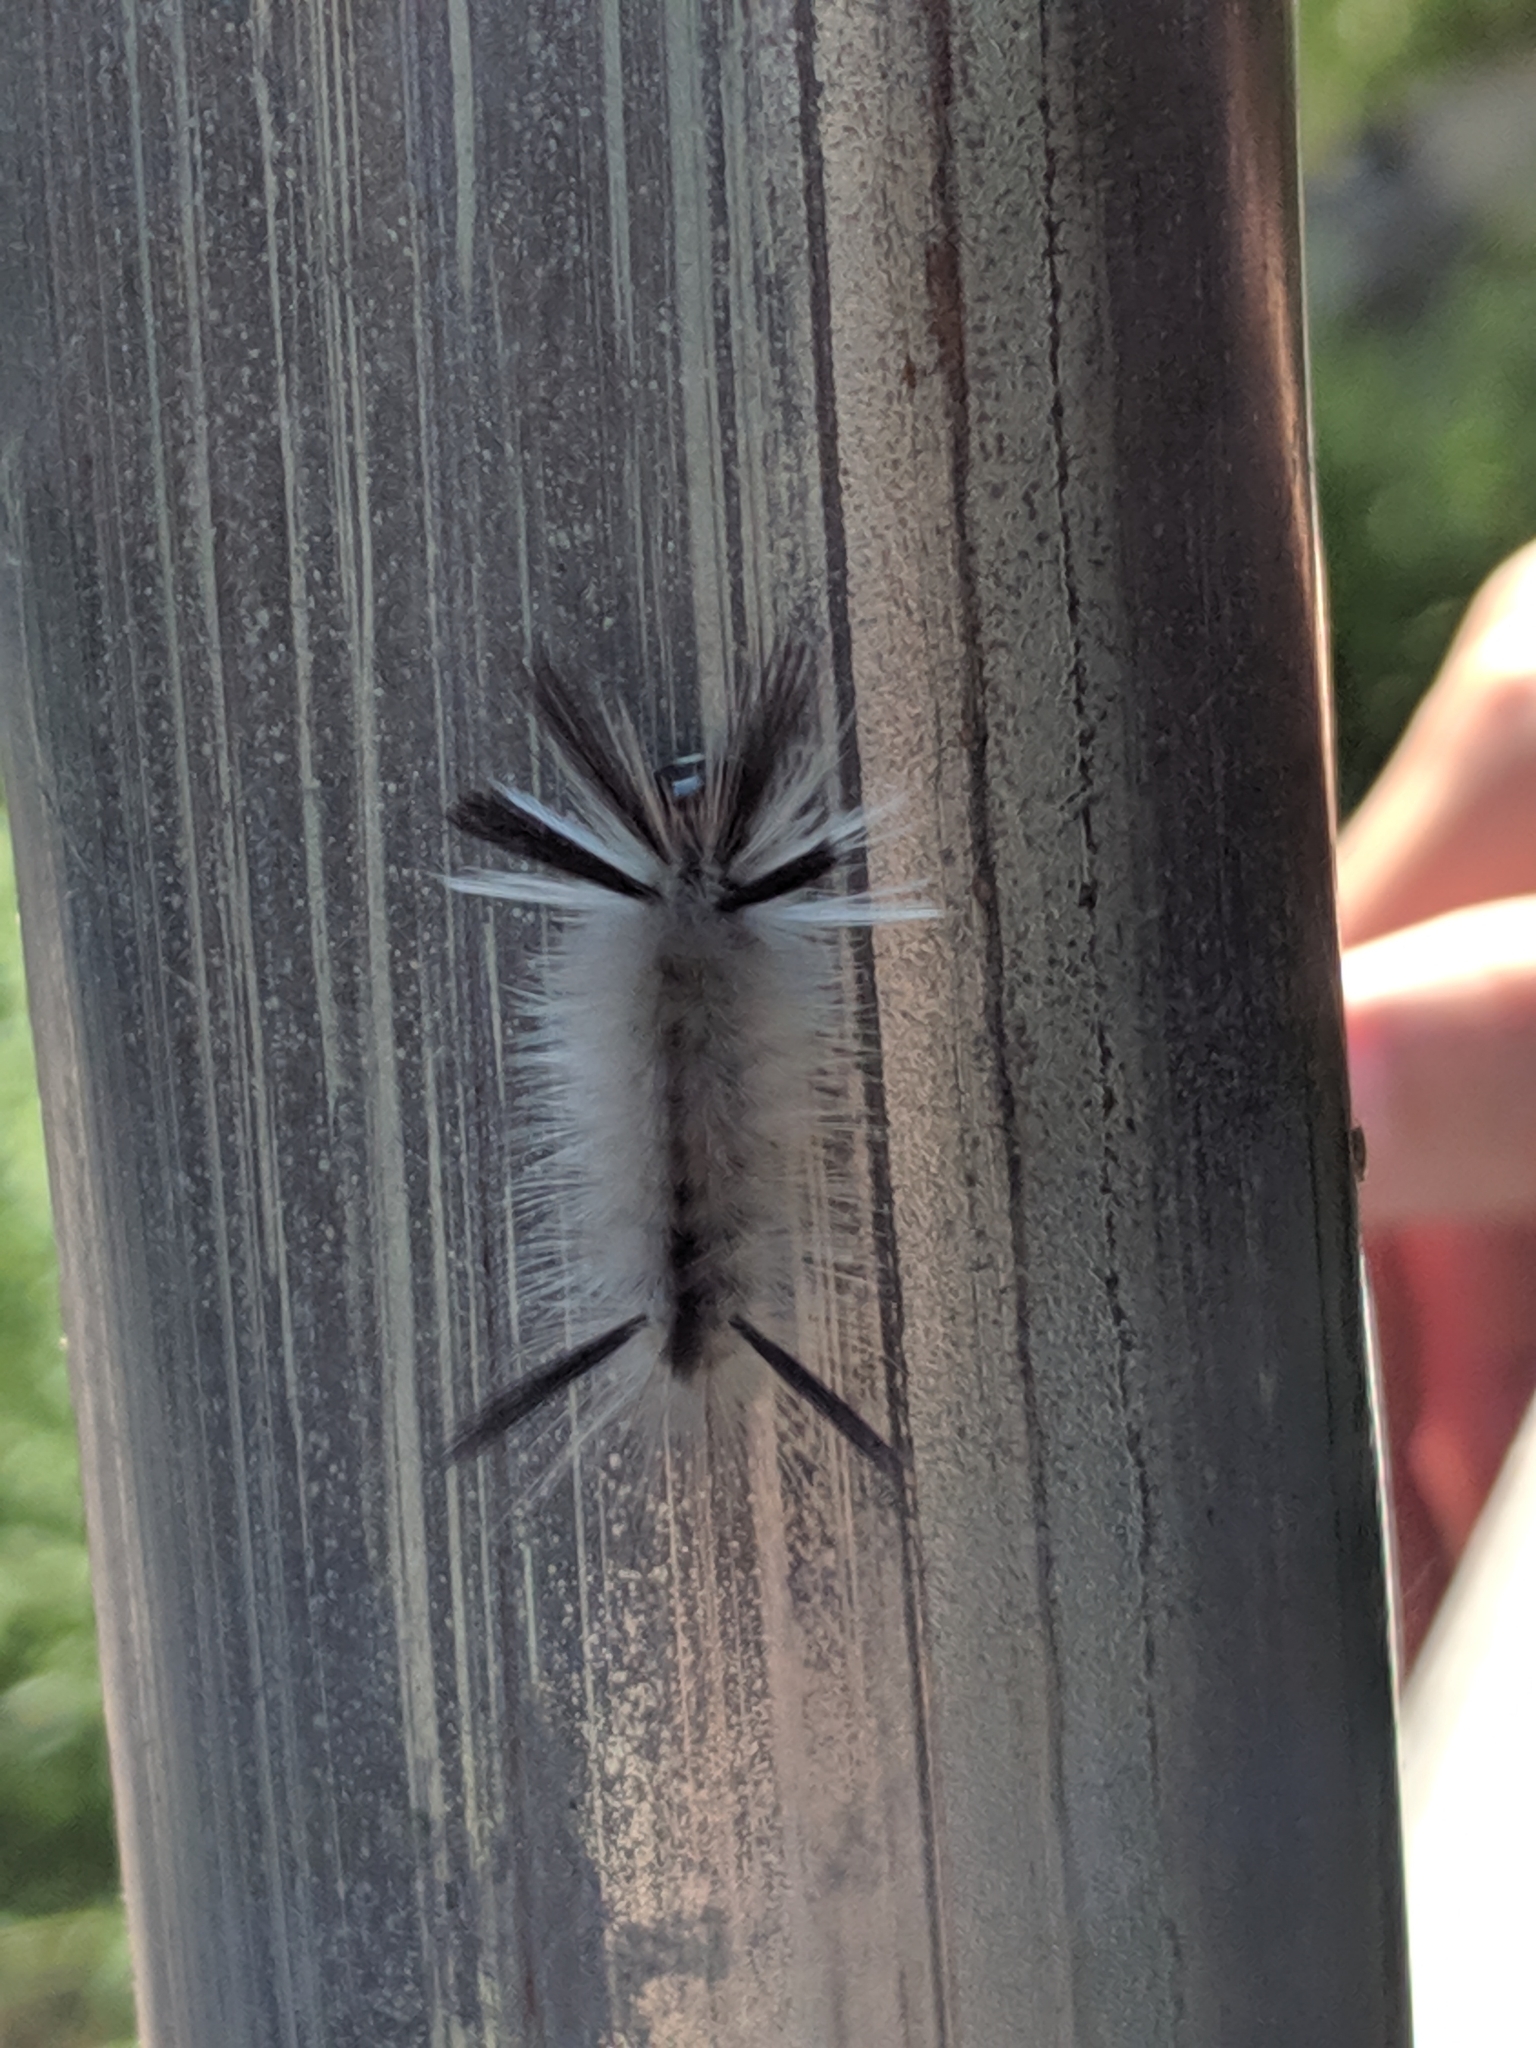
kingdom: Animalia
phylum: Arthropoda
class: Insecta
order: Lepidoptera
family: Erebidae
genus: Halysidota
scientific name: Halysidota tessellaris
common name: Banded tussock moth
